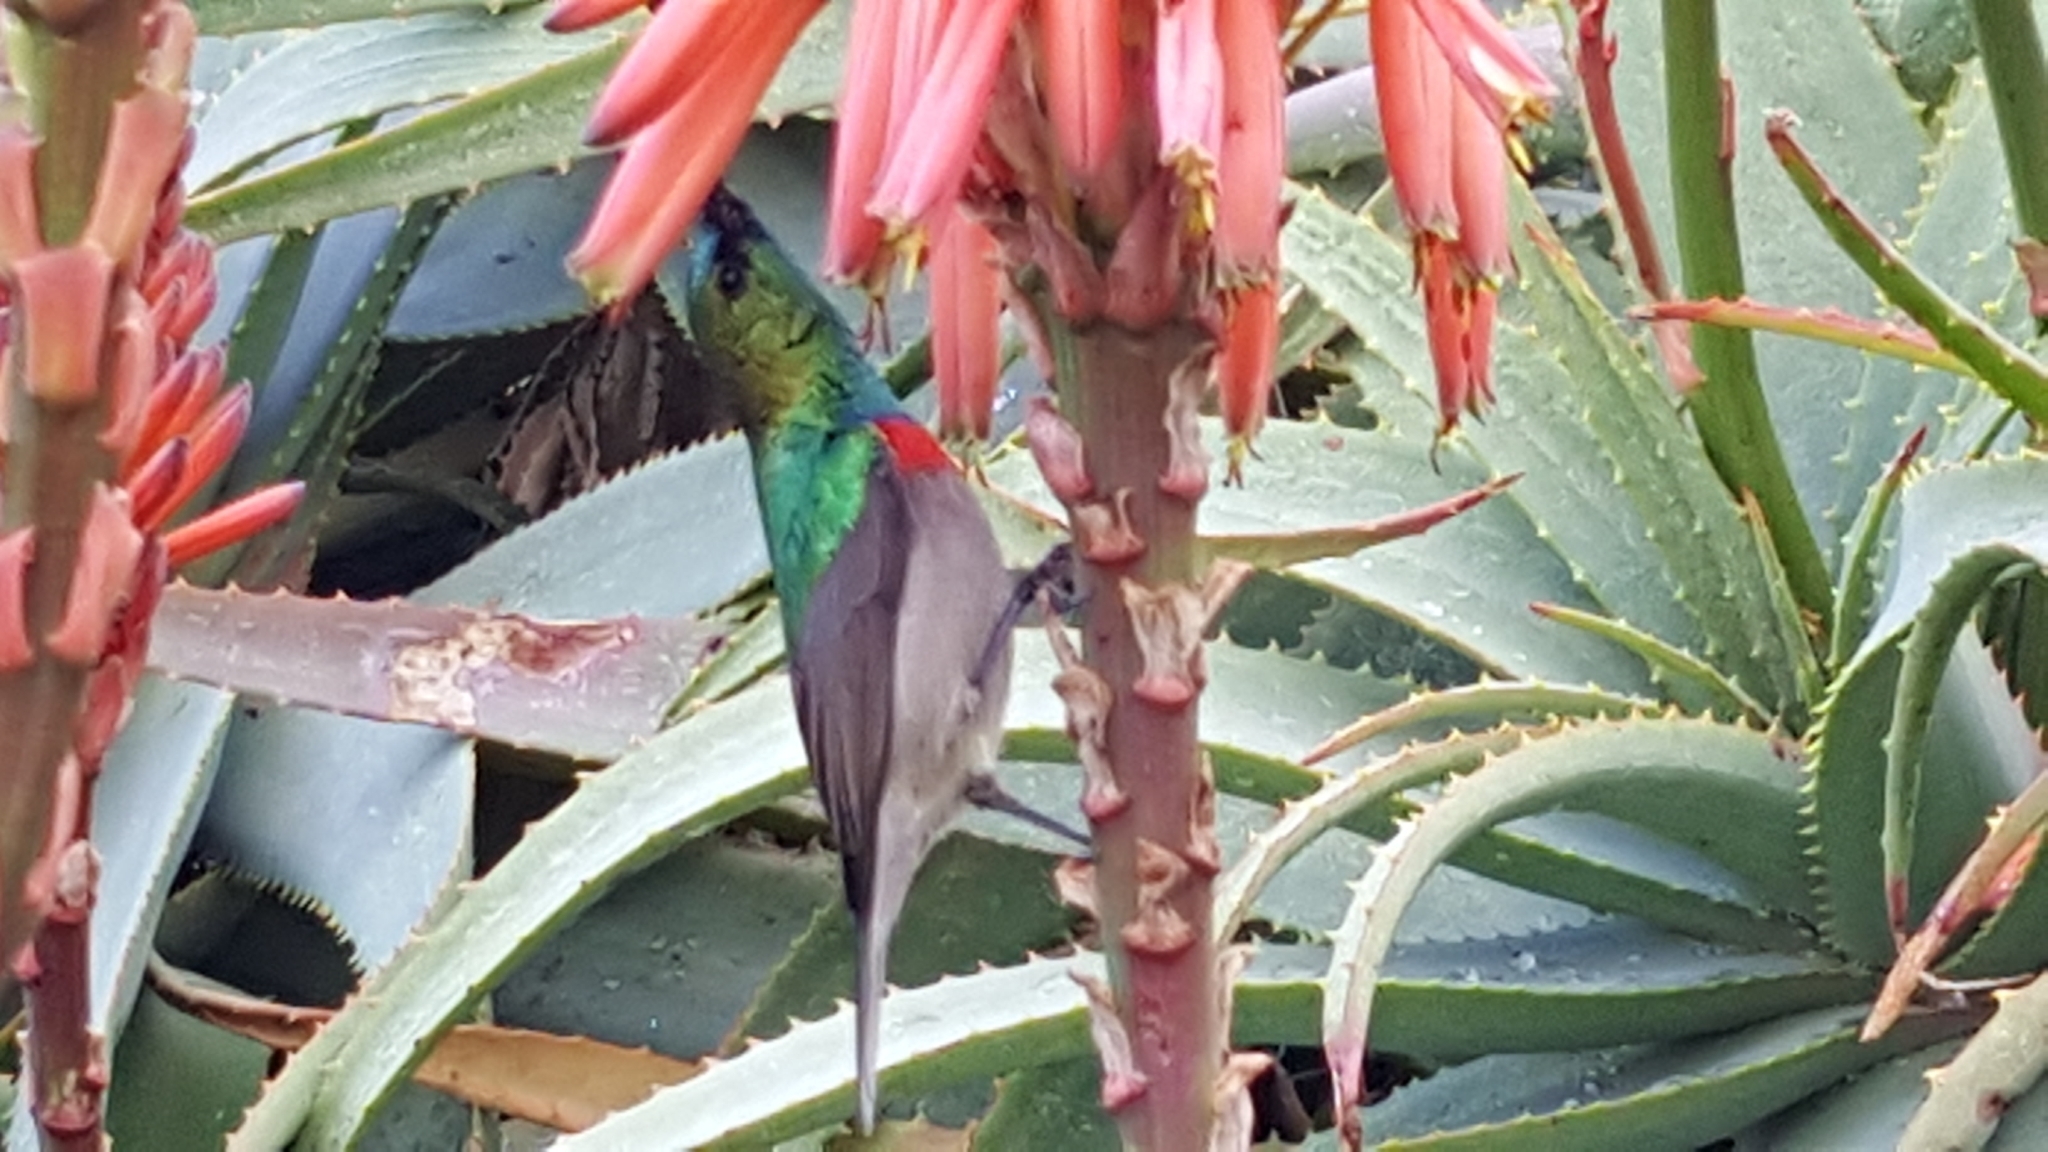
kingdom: Animalia
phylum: Chordata
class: Aves
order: Passeriformes
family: Nectariniidae
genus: Cinnyris
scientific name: Cinnyris chalybeus
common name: Southern double-collared sunbird
